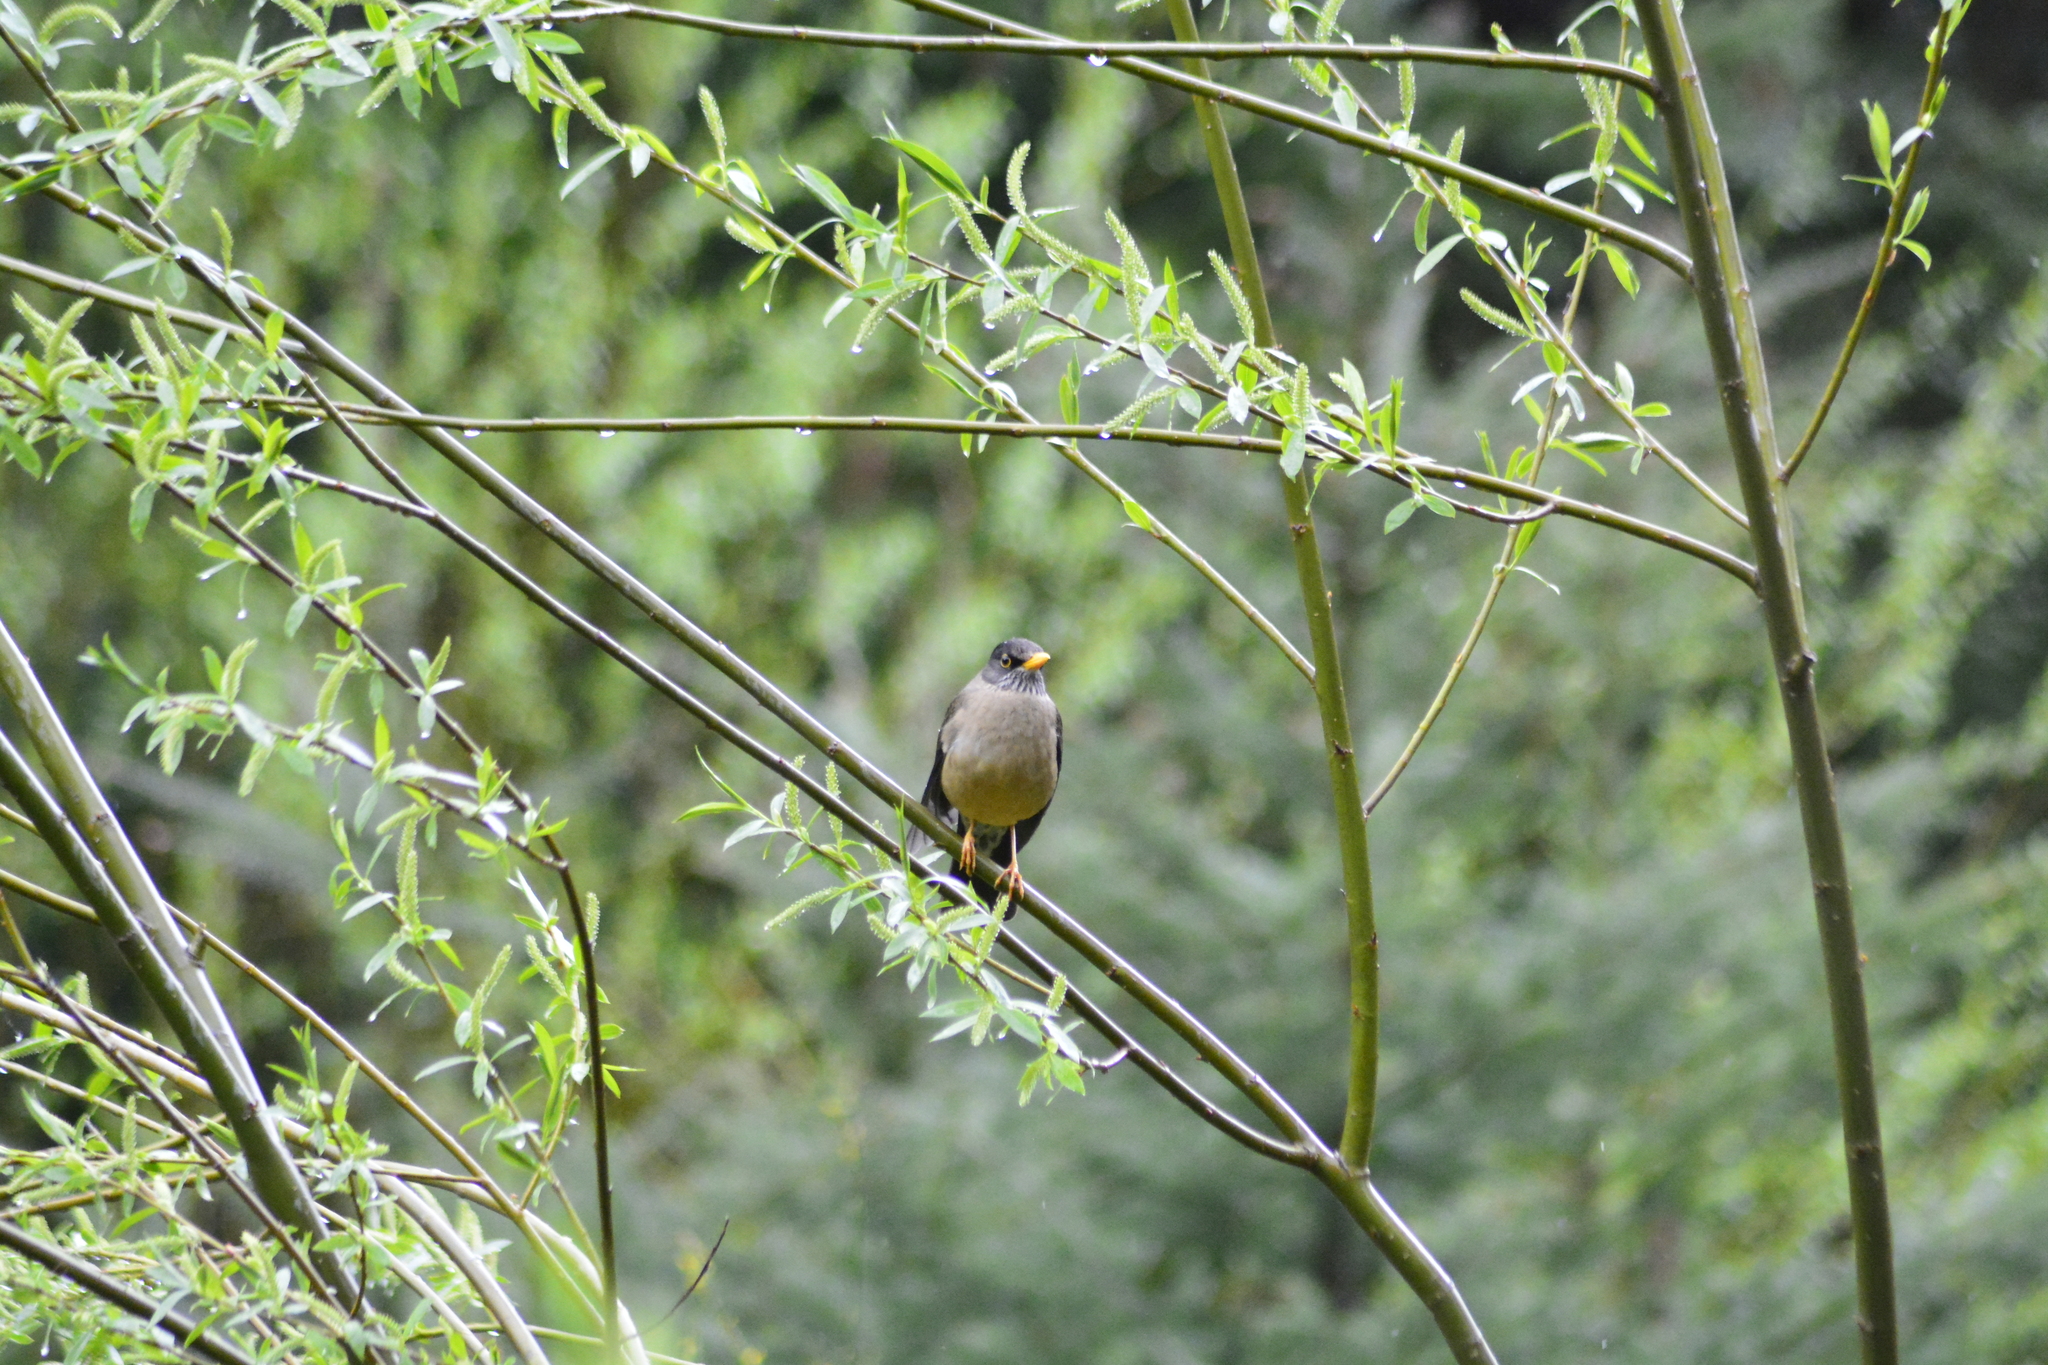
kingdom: Animalia
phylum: Chordata
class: Aves
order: Passeriformes
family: Turdidae
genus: Turdus
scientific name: Turdus falcklandii
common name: Austral thrush
